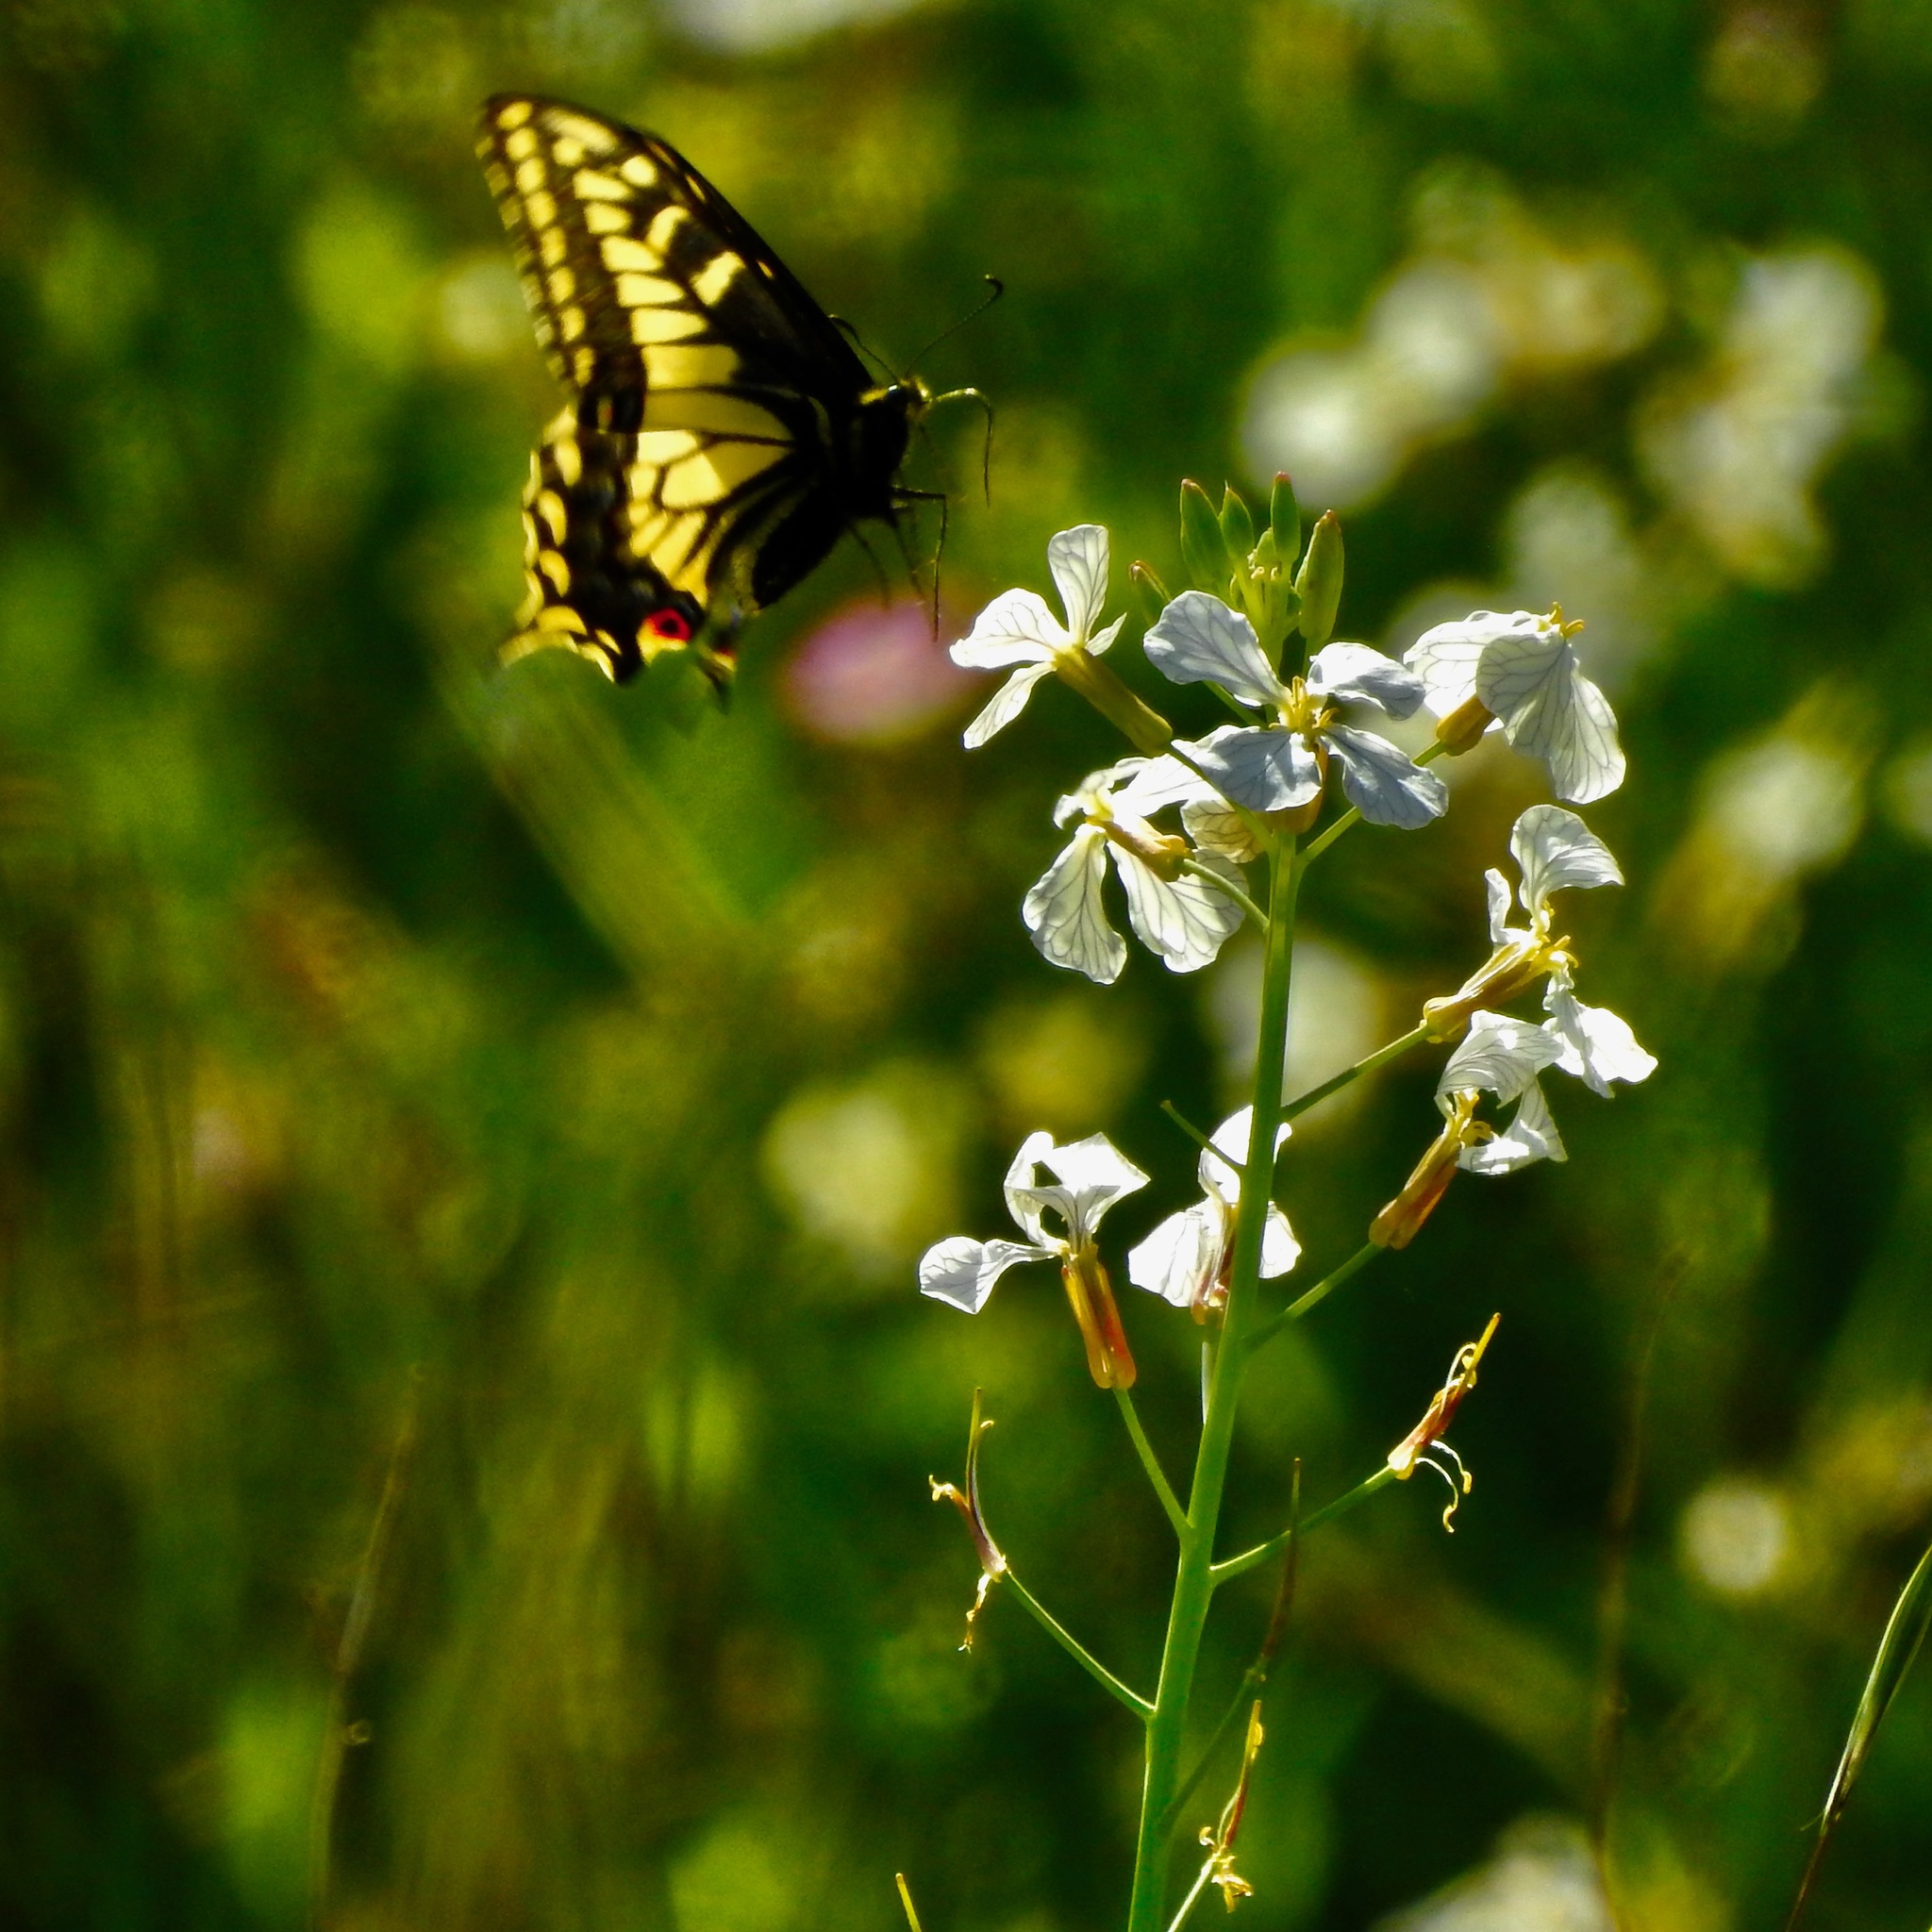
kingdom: Animalia
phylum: Arthropoda
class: Insecta
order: Lepidoptera
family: Papilionidae
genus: Papilio
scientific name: Papilio zelicaon
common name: Anise swallowtail
